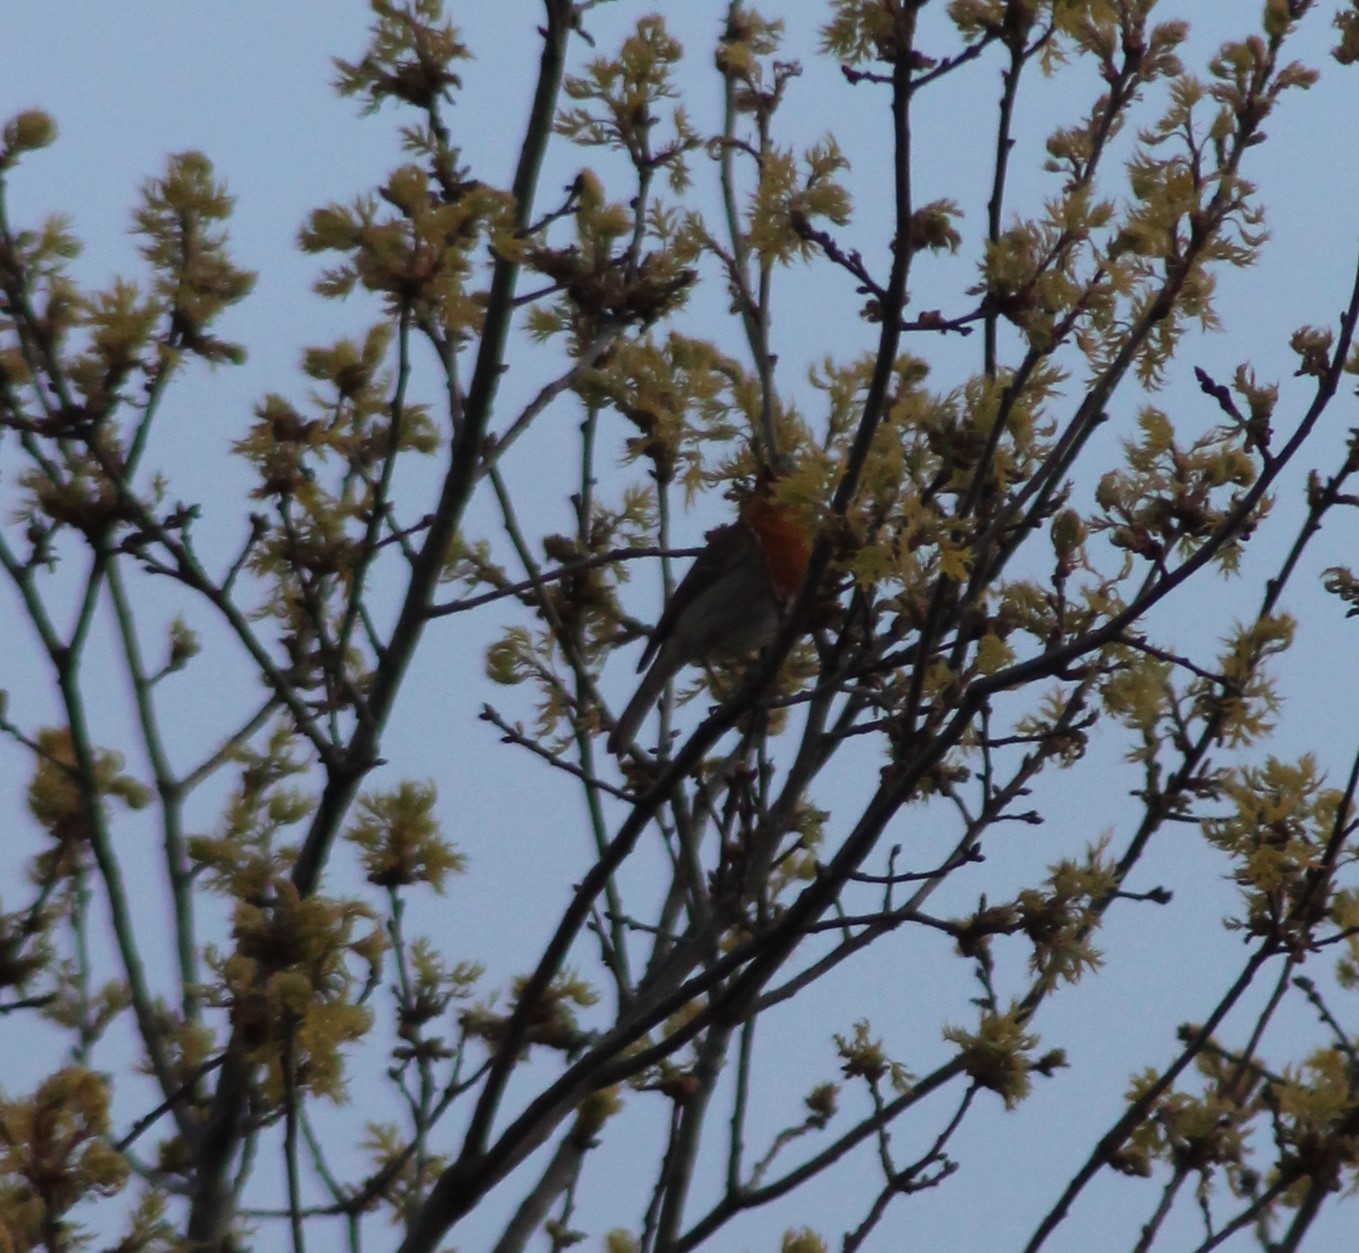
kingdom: Animalia
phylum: Chordata
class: Aves
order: Passeriformes
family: Muscicapidae
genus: Erithacus
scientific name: Erithacus rubecula
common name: European robin
